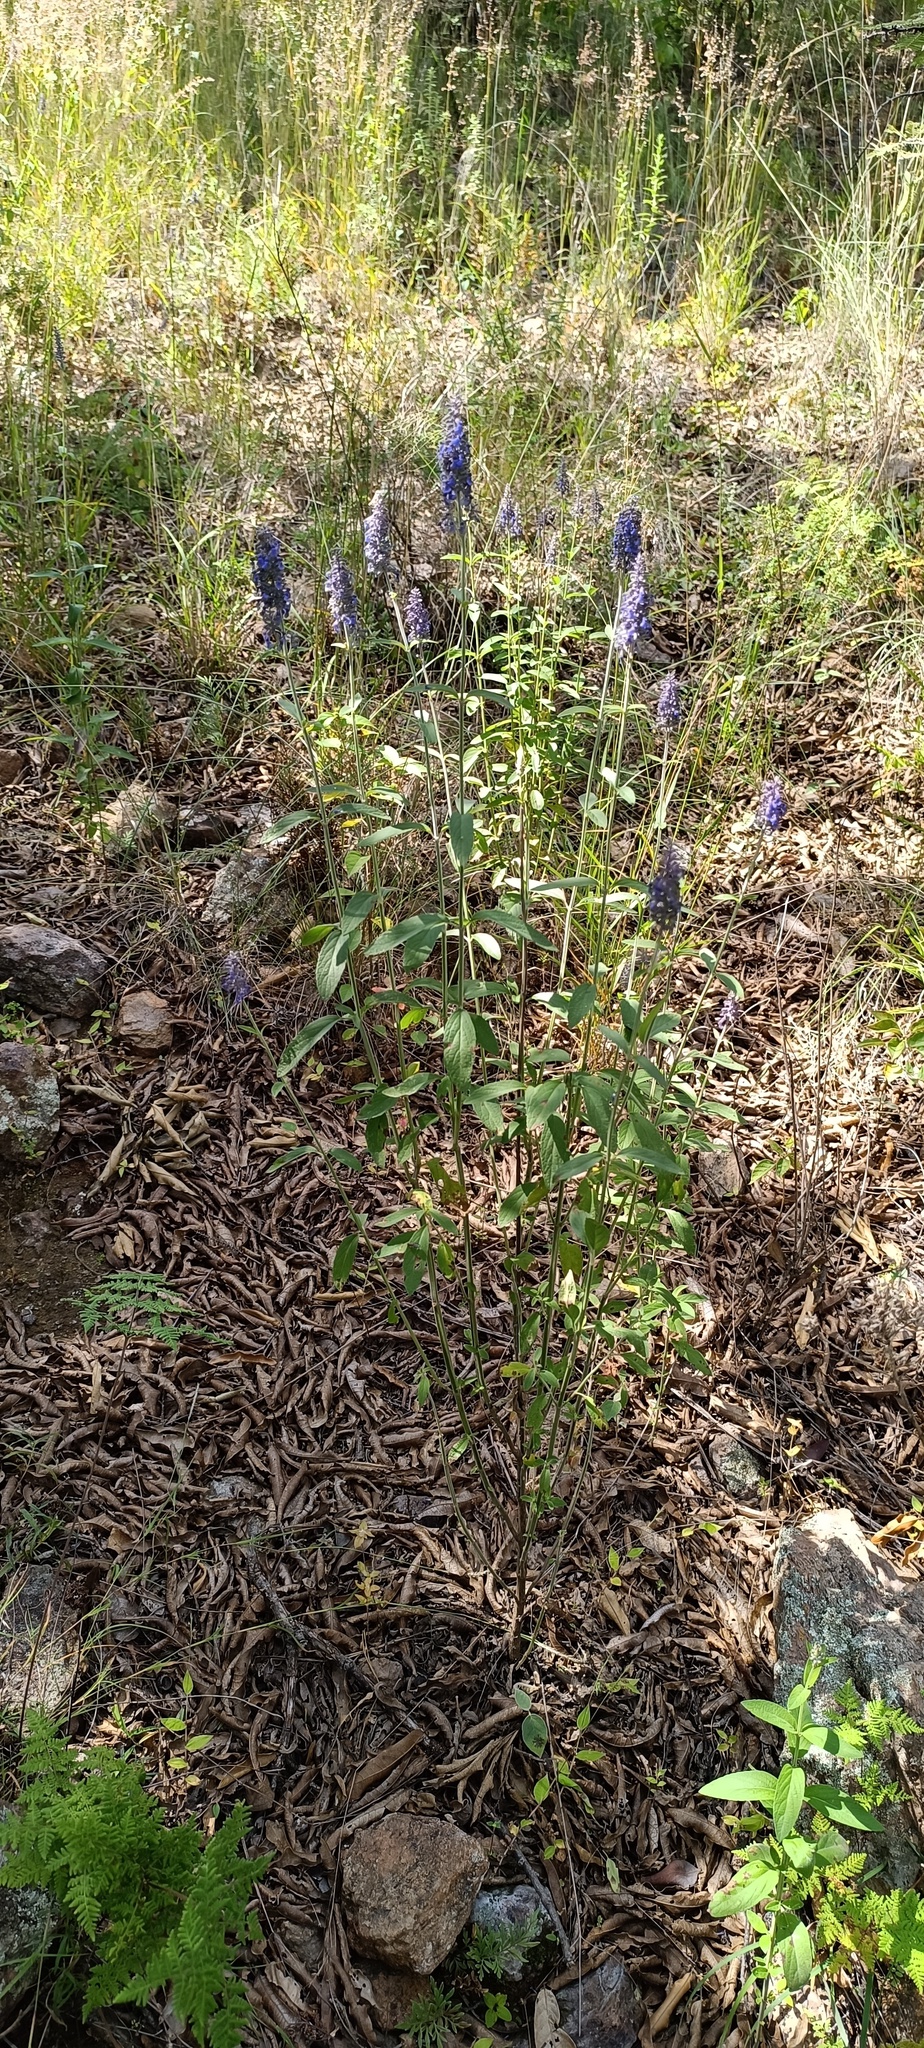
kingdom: Plantae
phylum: Tracheophyta
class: Magnoliopsida
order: Lamiales
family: Lamiaceae
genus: Salvia
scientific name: Salvia lavanduloides
